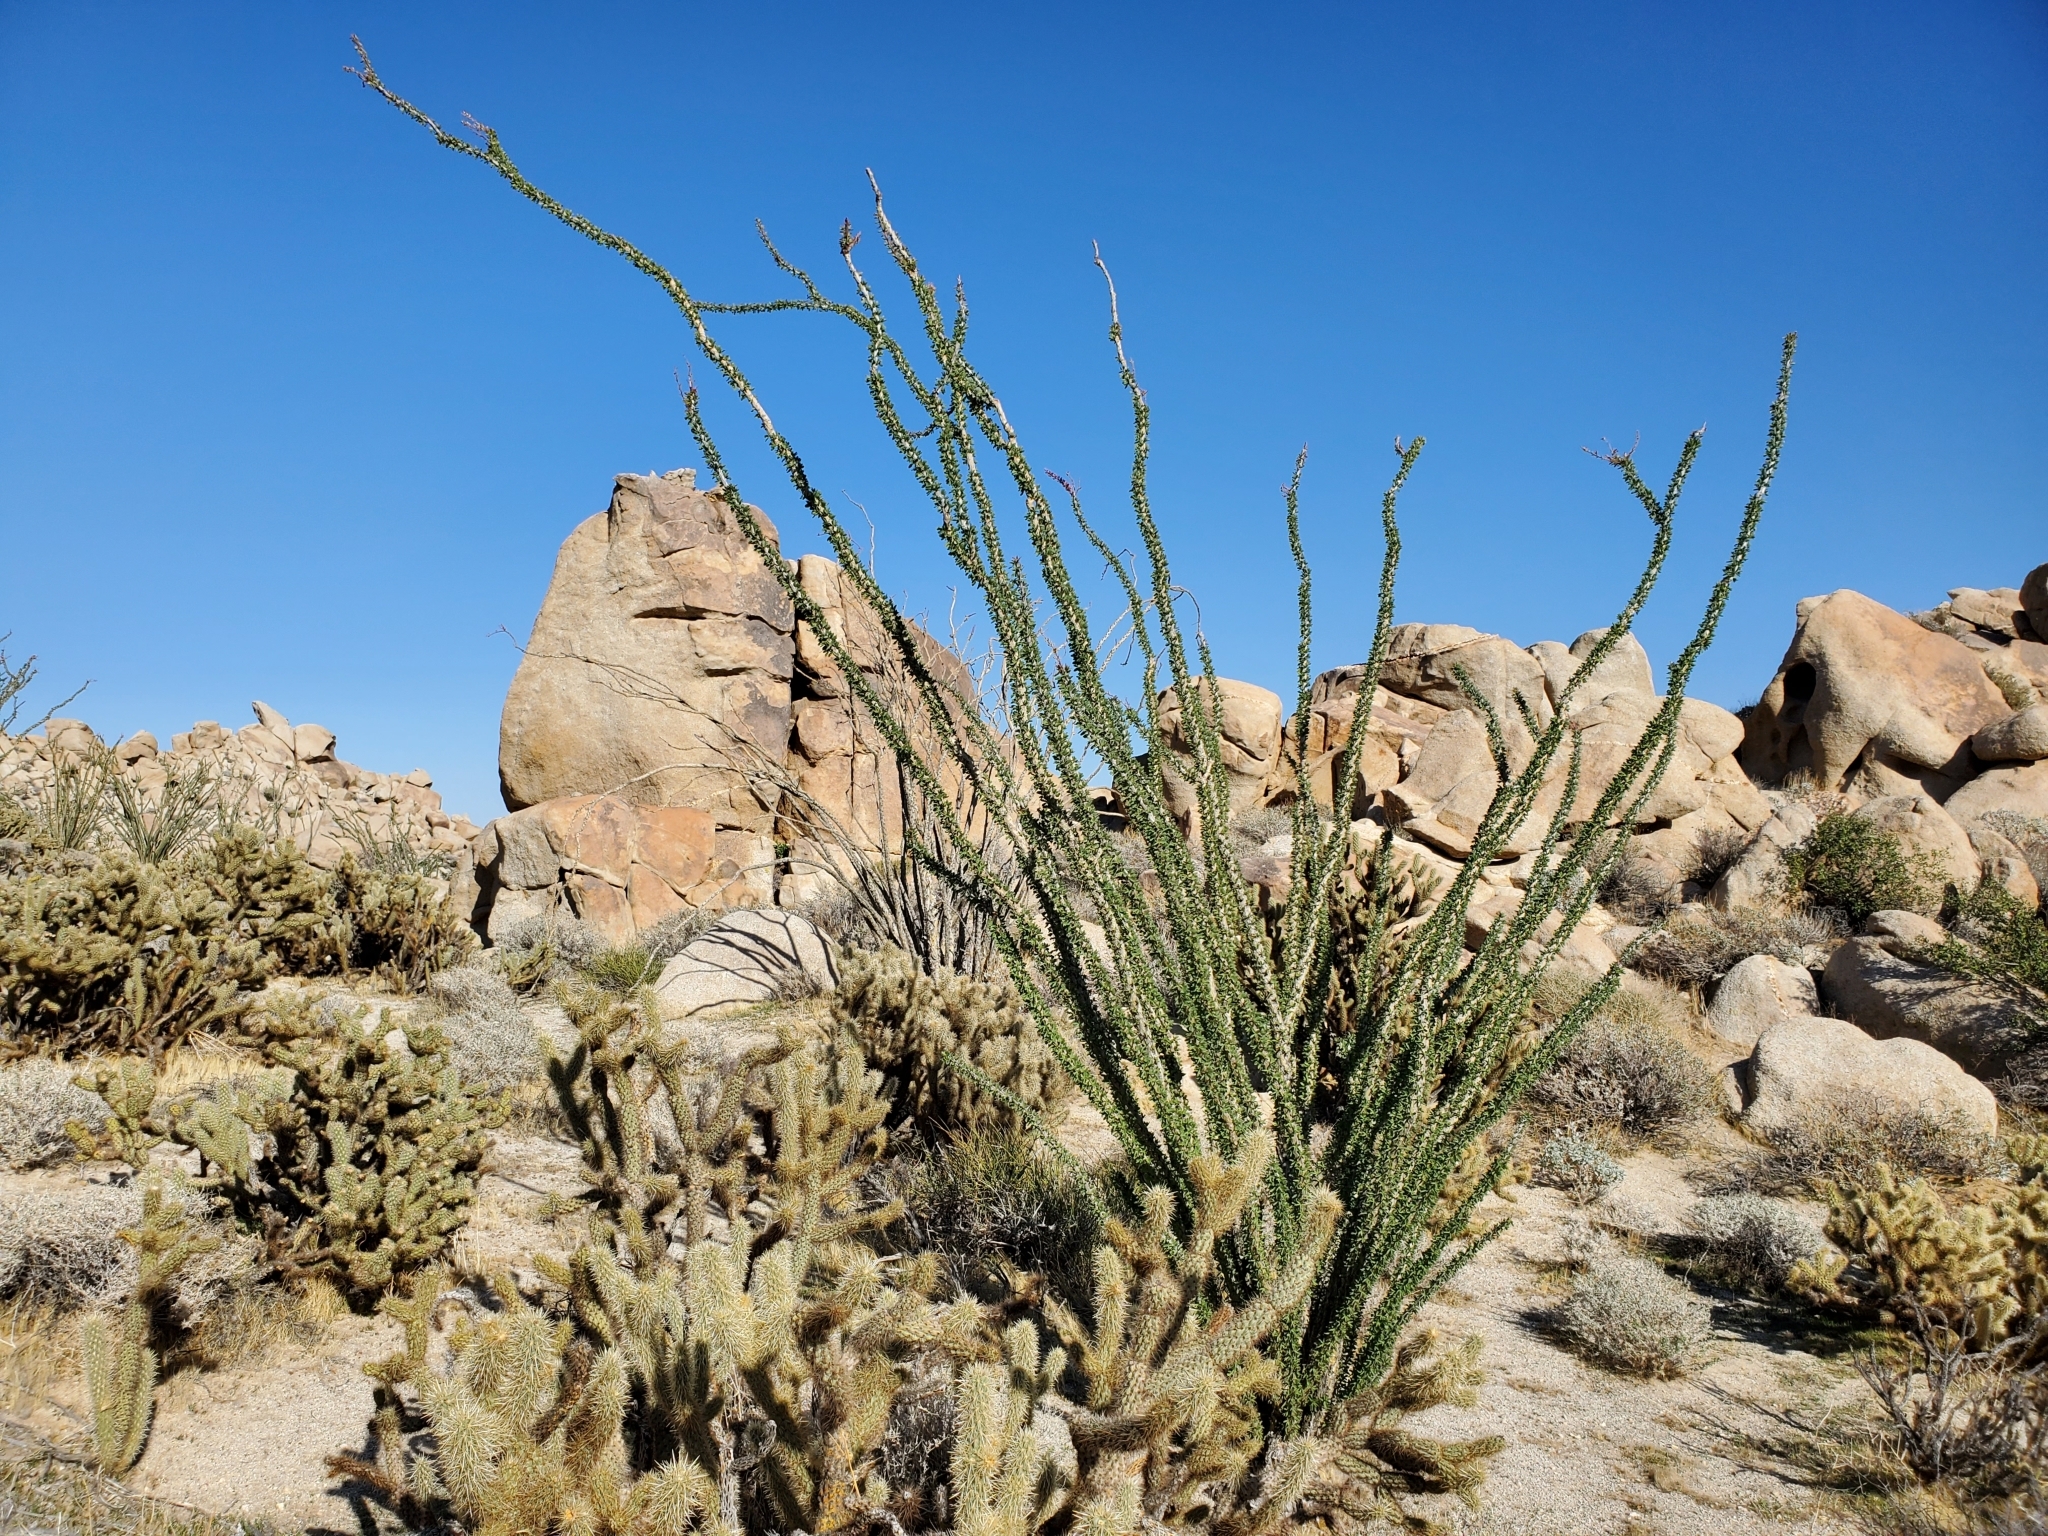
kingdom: Plantae
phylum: Tracheophyta
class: Magnoliopsida
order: Ericales
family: Fouquieriaceae
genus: Fouquieria
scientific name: Fouquieria splendens
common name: Vine-cactus
